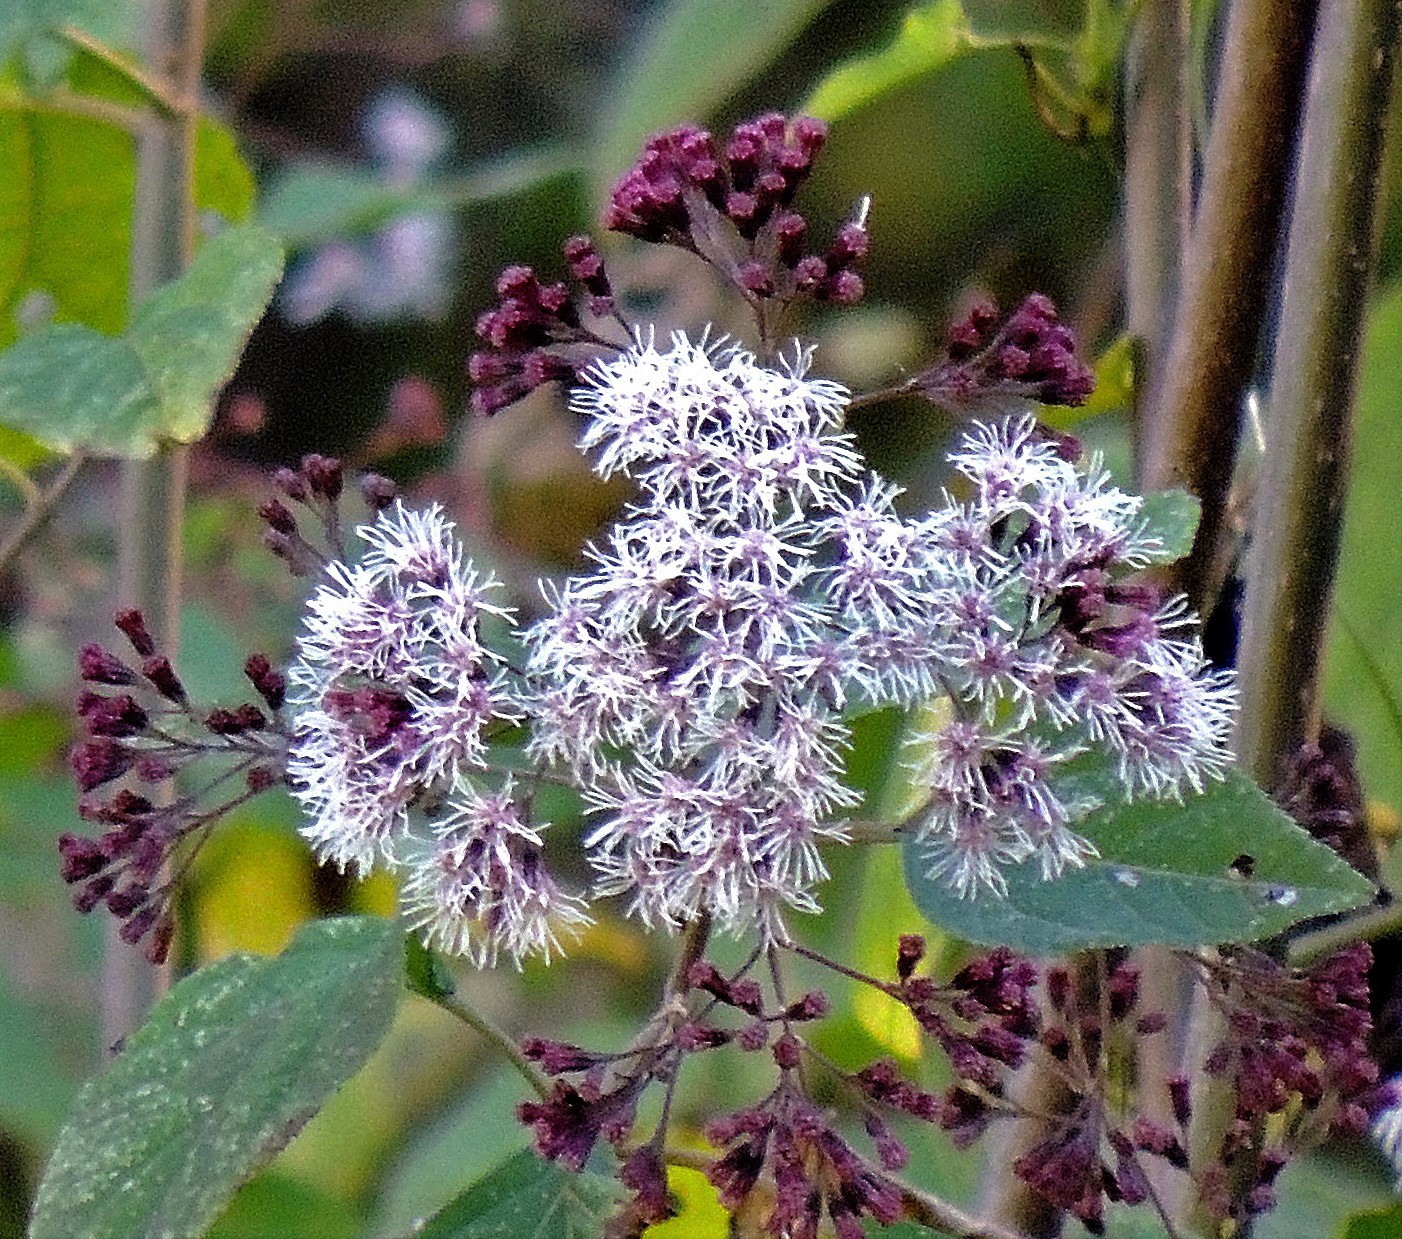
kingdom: Plantae
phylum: Tracheophyta
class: Magnoliopsida
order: Asterales
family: Asteraceae
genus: Kaunia
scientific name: Kaunia saltensis
